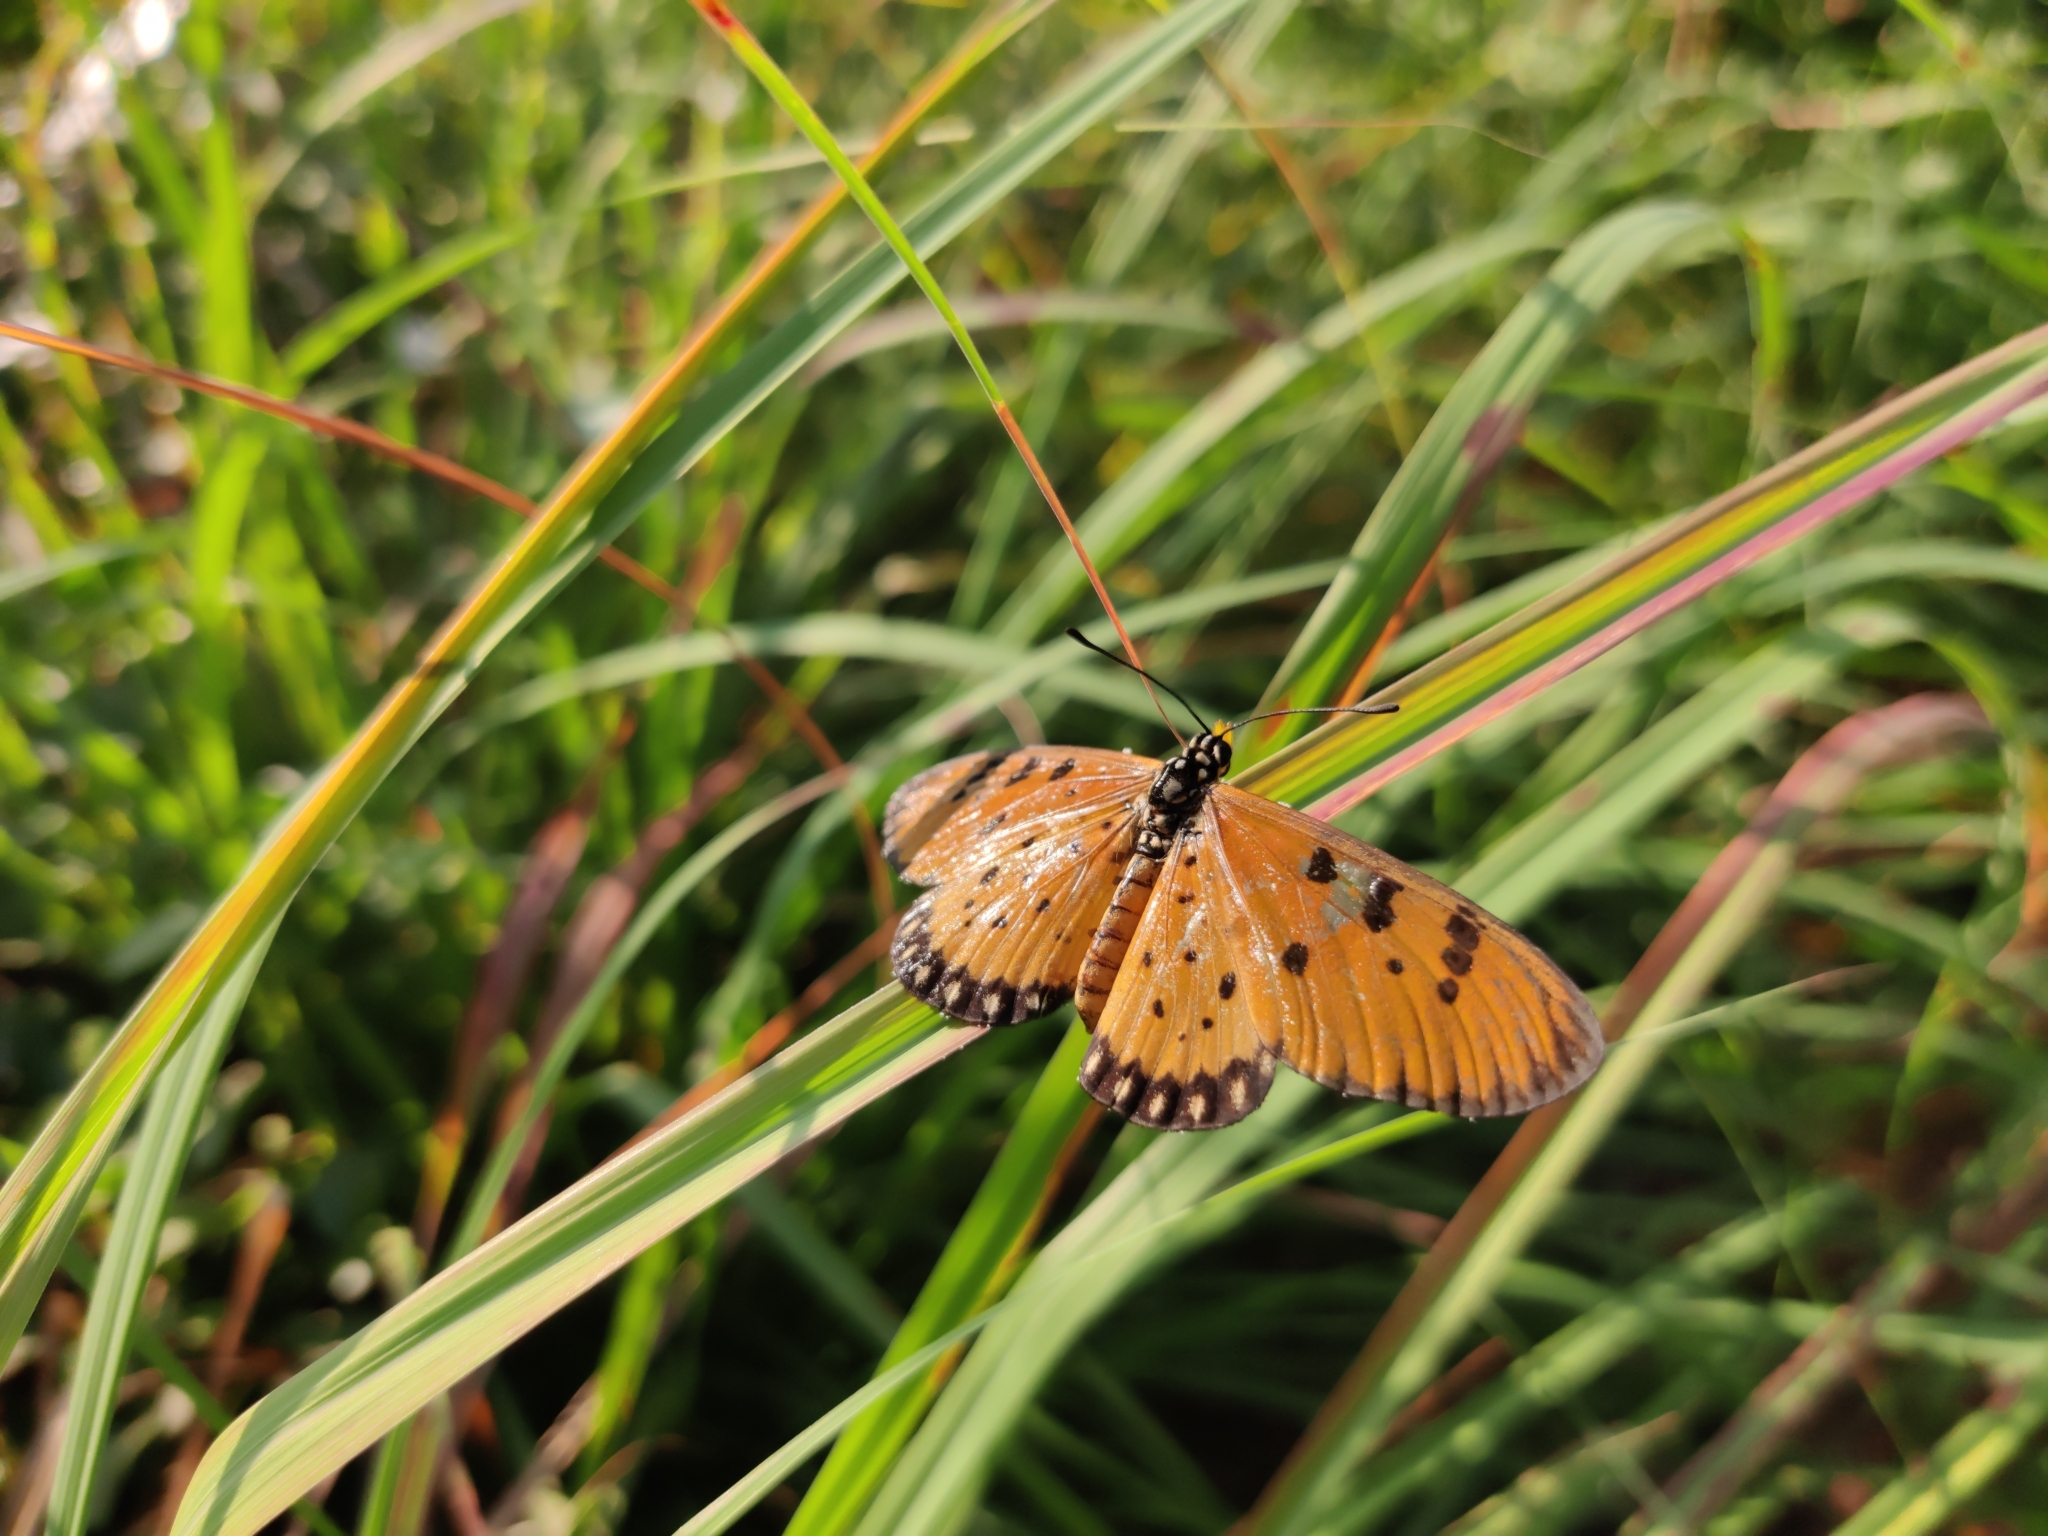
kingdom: Animalia
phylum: Arthropoda
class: Insecta
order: Lepidoptera
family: Nymphalidae
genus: Acraea
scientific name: Acraea terpsicore
